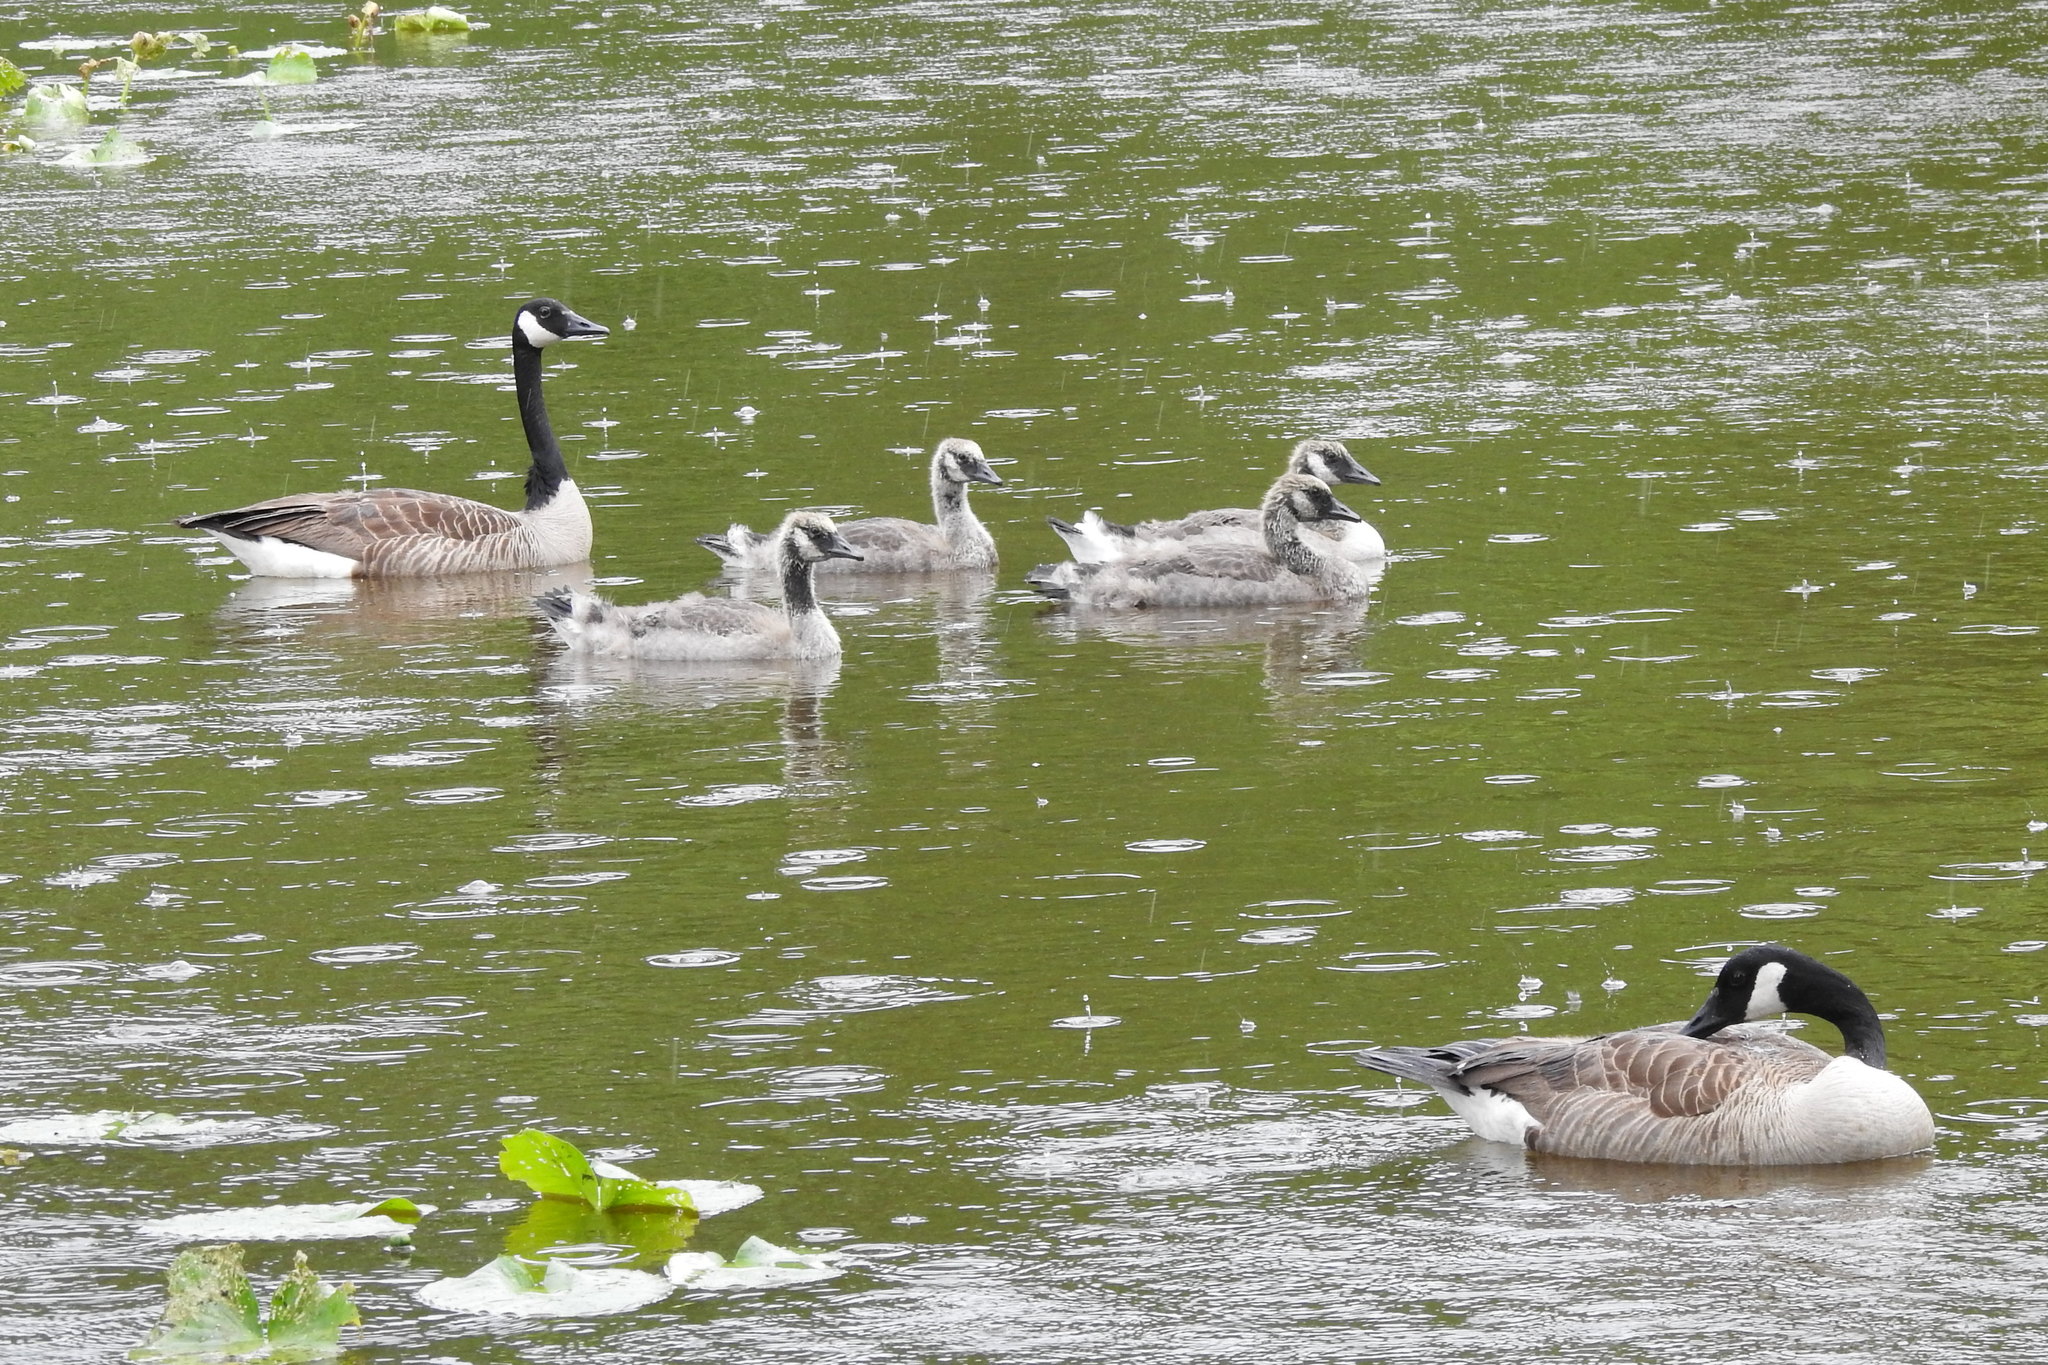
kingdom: Animalia
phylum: Chordata
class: Aves
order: Anseriformes
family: Anatidae
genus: Branta
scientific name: Branta canadensis
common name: Canada goose
